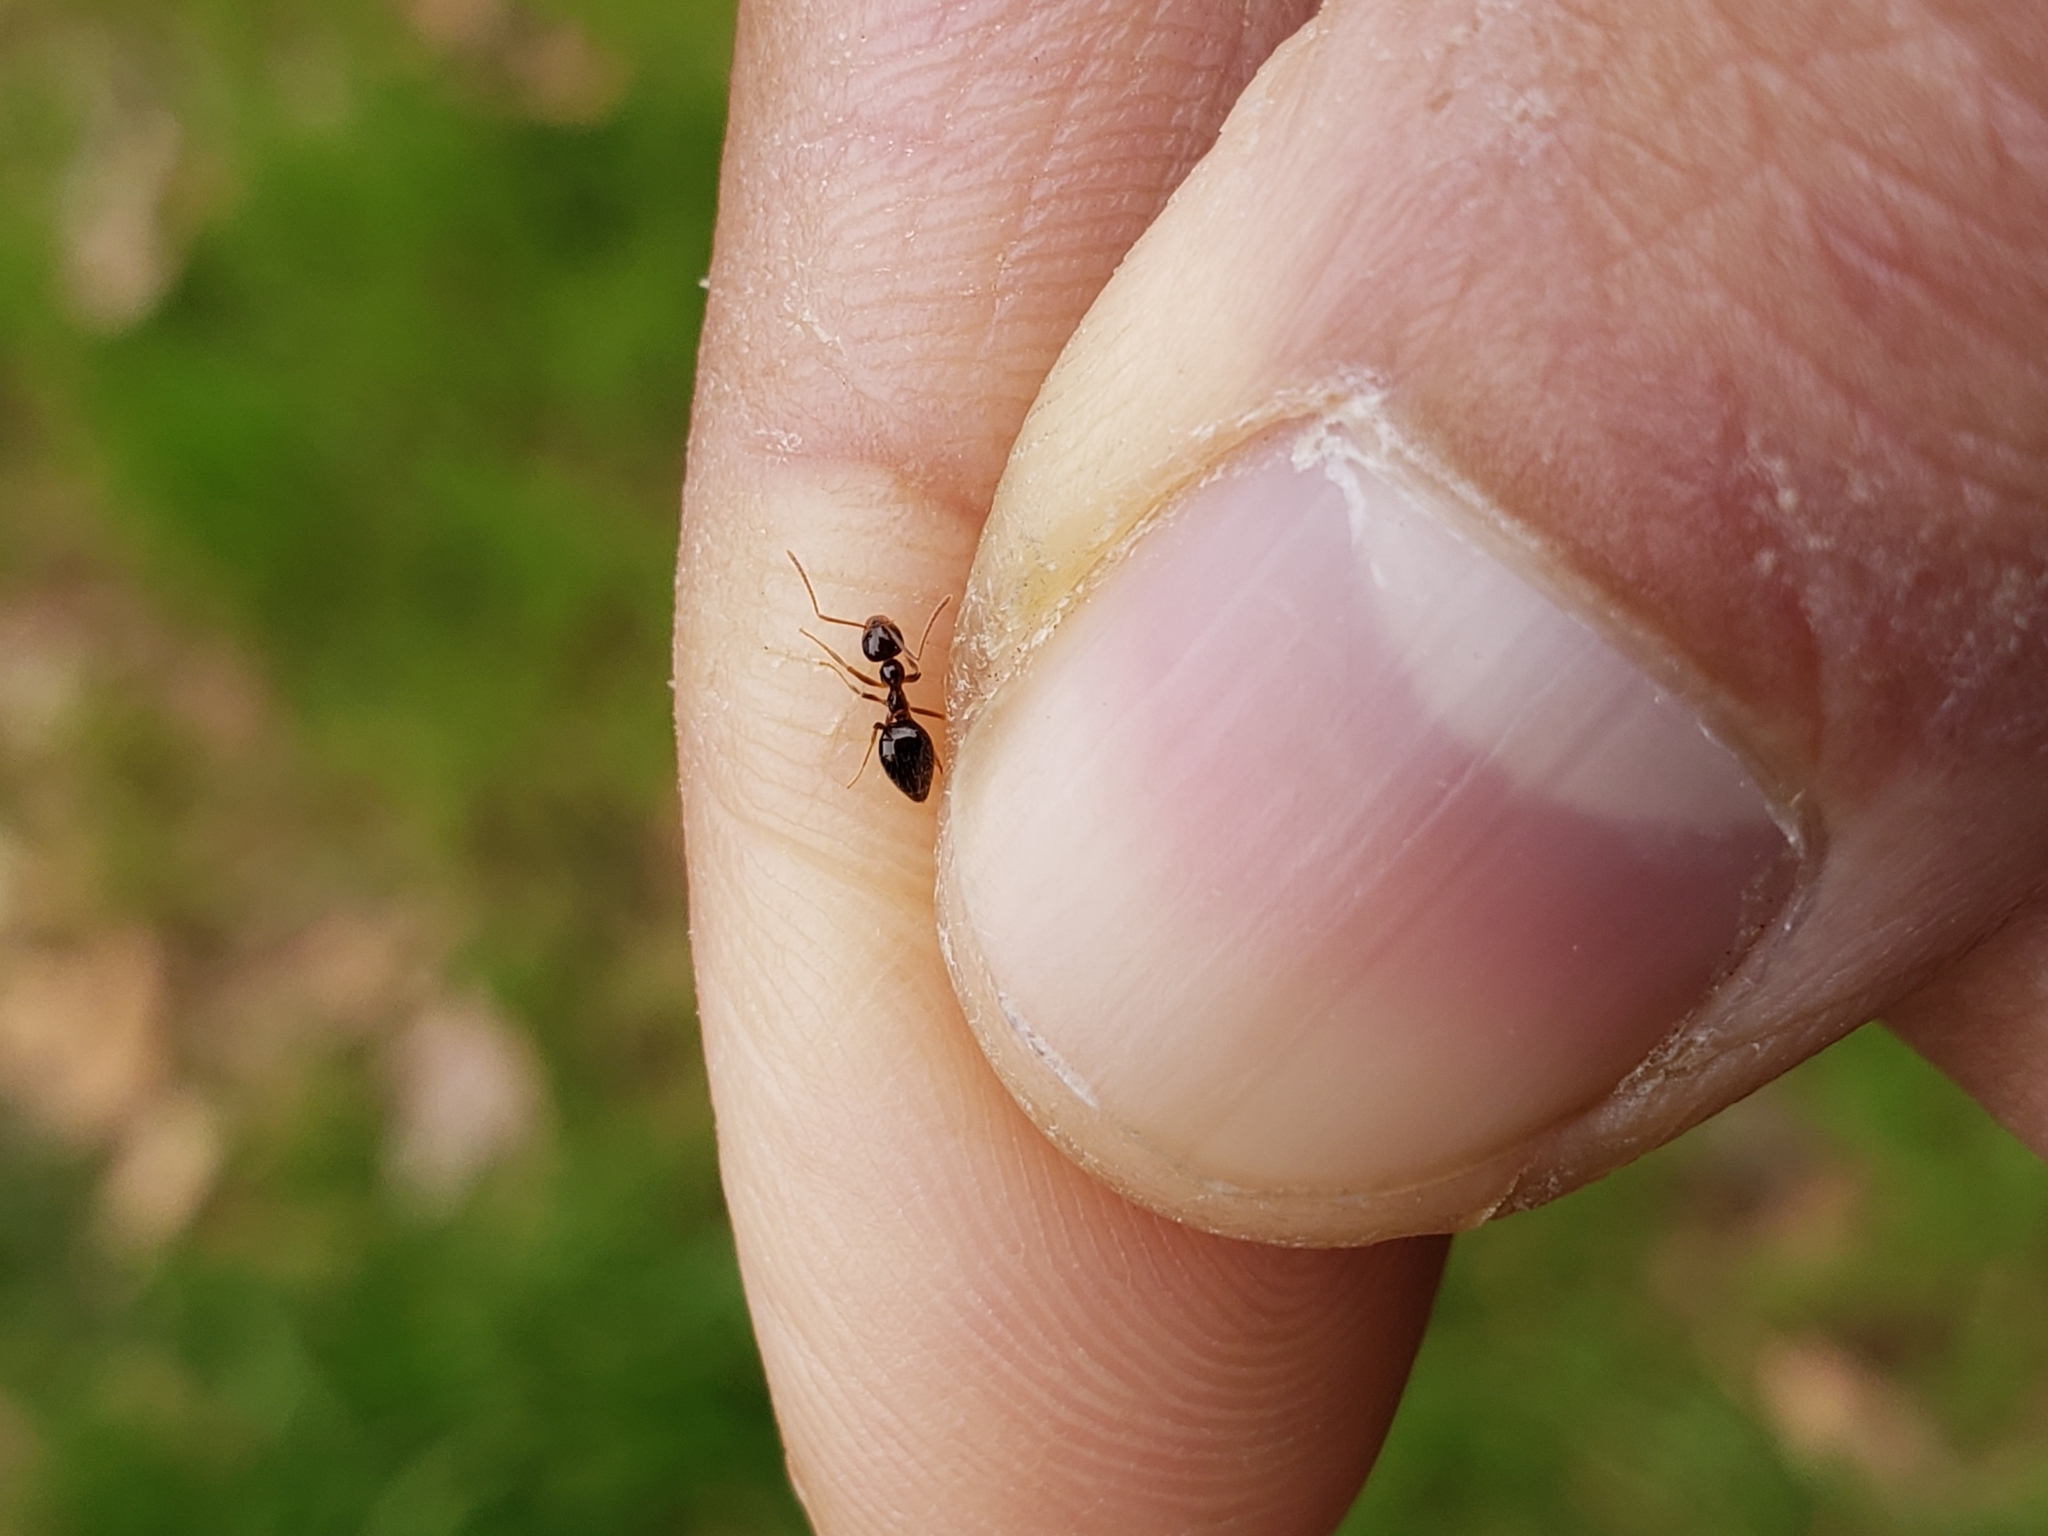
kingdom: Animalia
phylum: Arthropoda
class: Insecta
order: Hymenoptera
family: Formicidae
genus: Prenolepis
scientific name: Prenolepis imparis
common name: Small honey ant
